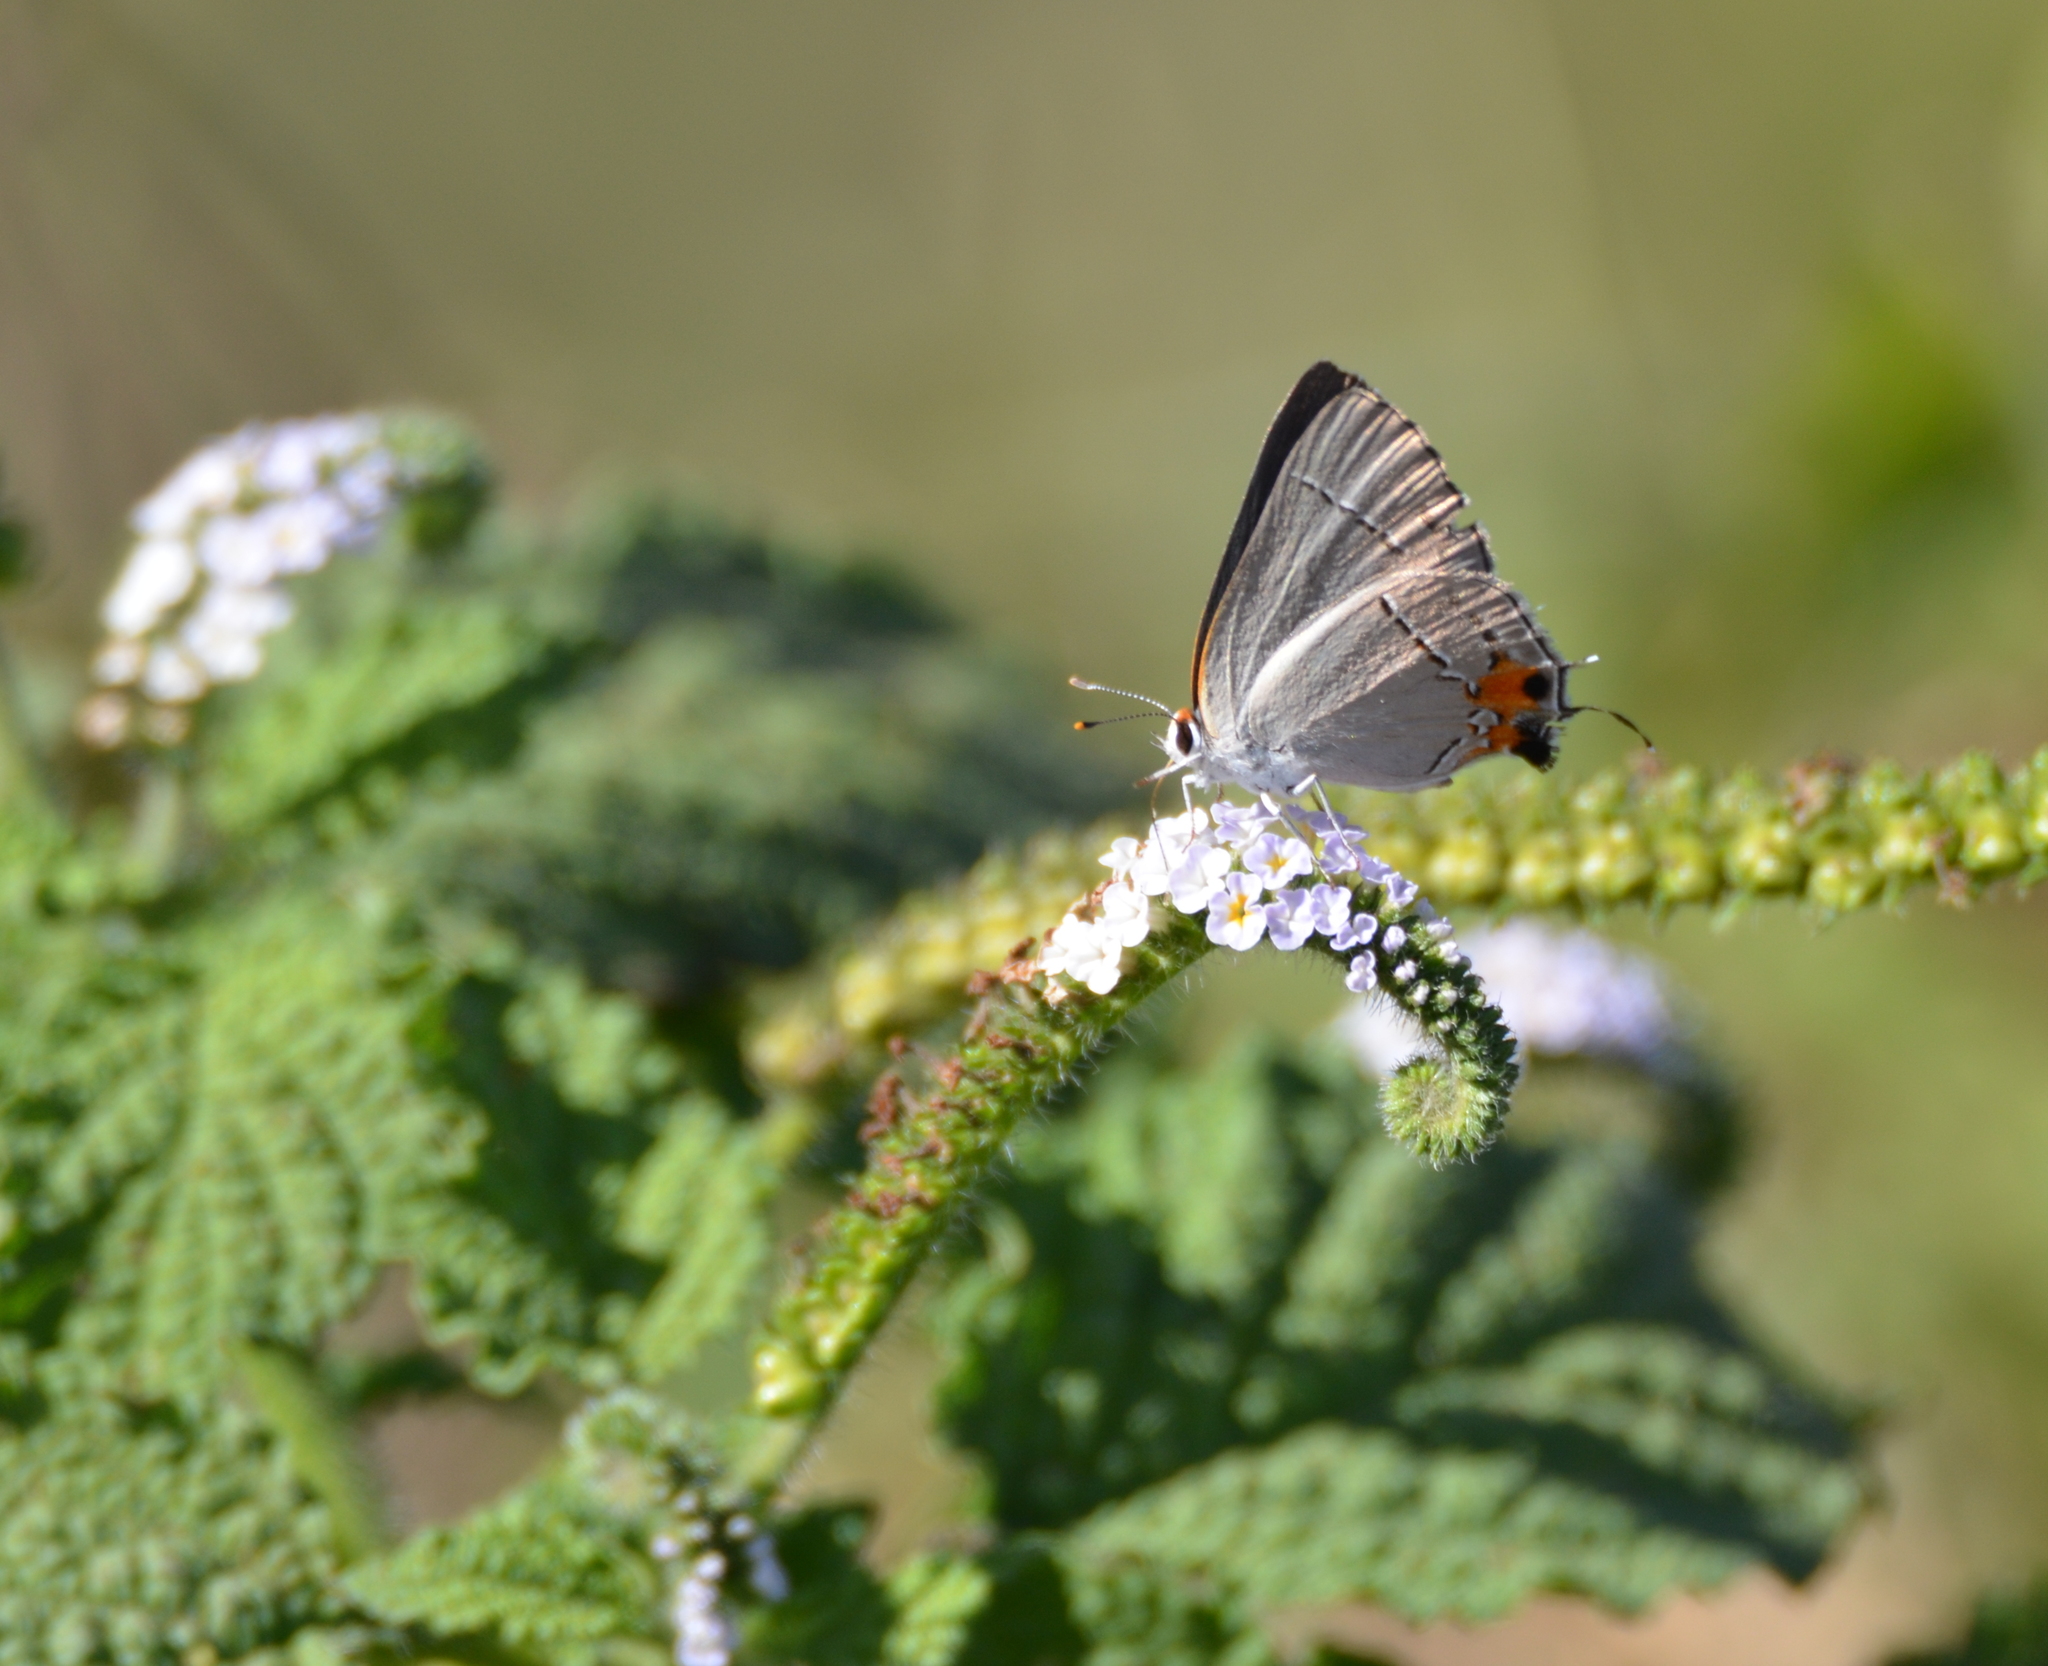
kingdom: Animalia
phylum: Arthropoda
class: Insecta
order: Lepidoptera
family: Lycaenidae
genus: Strymon
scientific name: Strymon melinus
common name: Gray hairstreak
